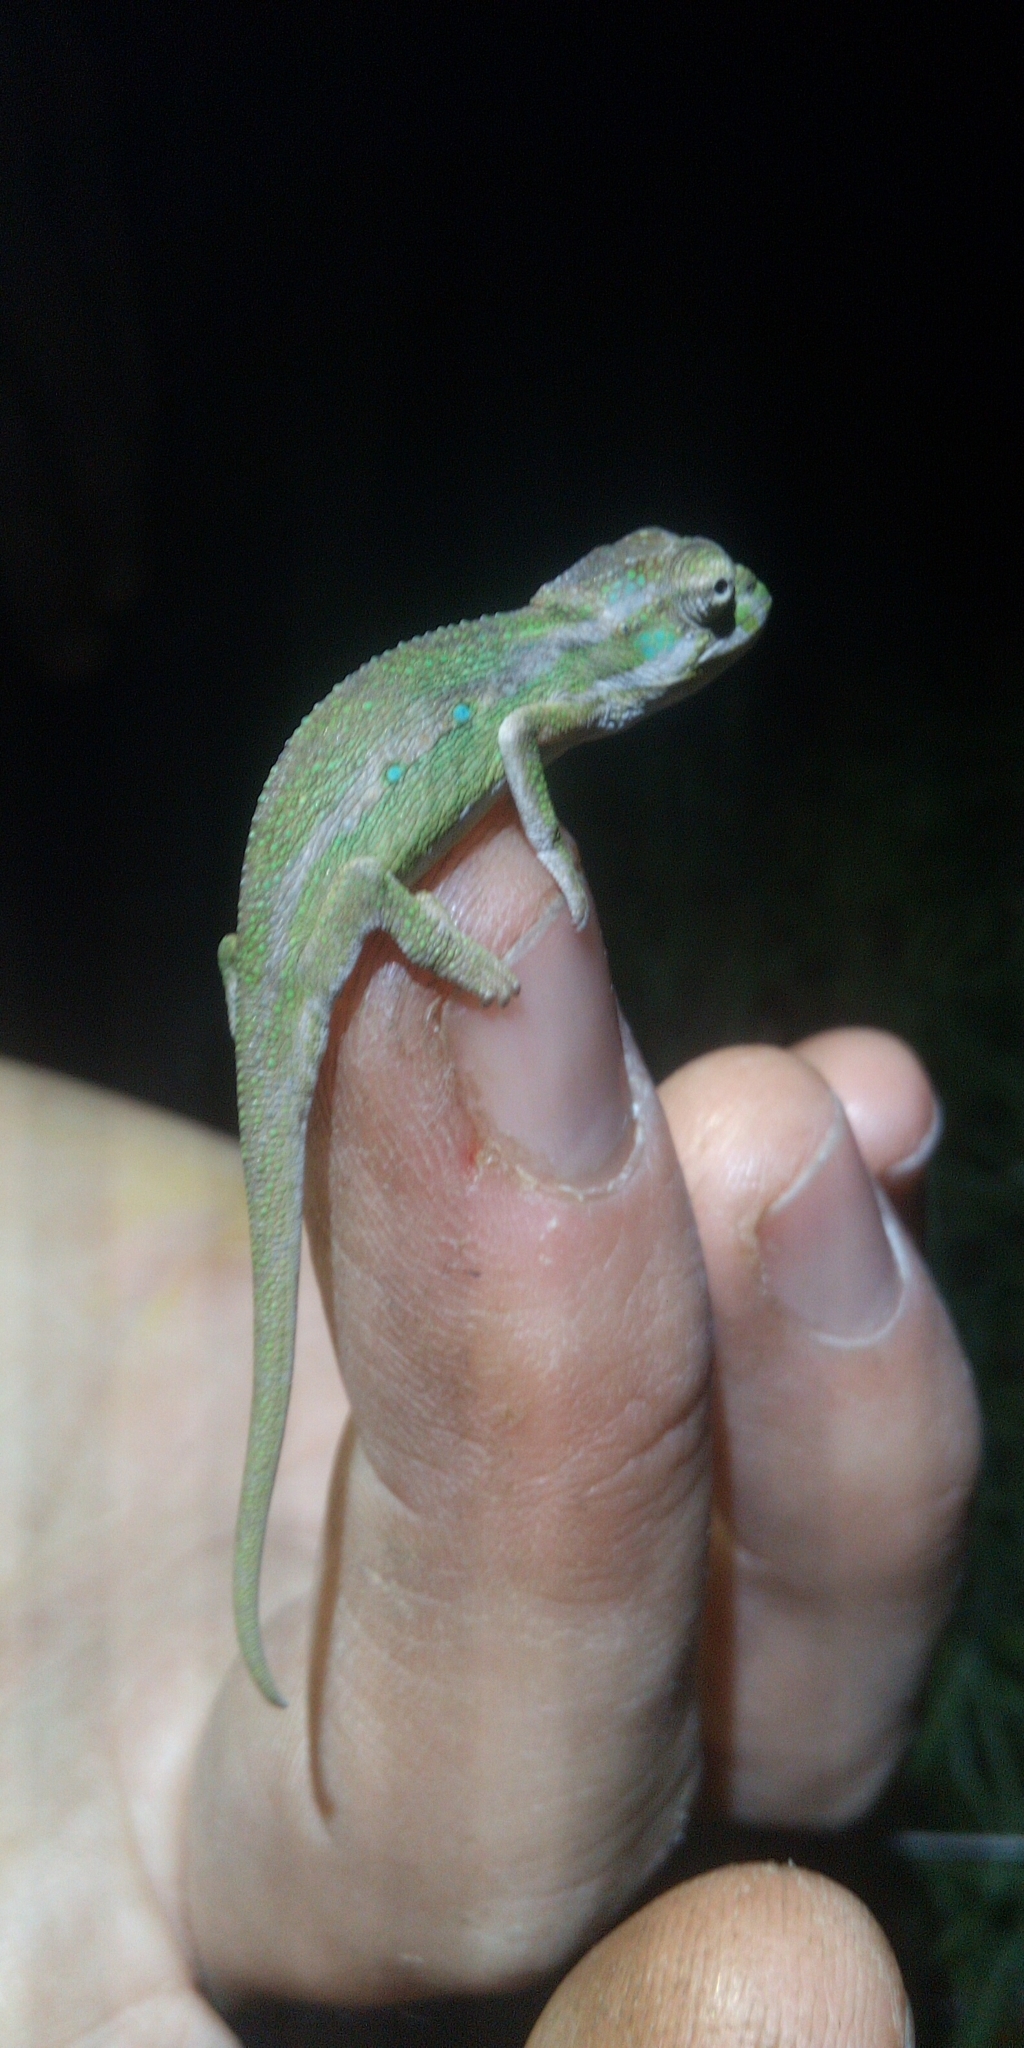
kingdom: Animalia
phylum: Chordata
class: Squamata
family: Chamaeleonidae
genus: Bradypodion
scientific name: Bradypodion pumilum
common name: Cape dwarf chameleon
